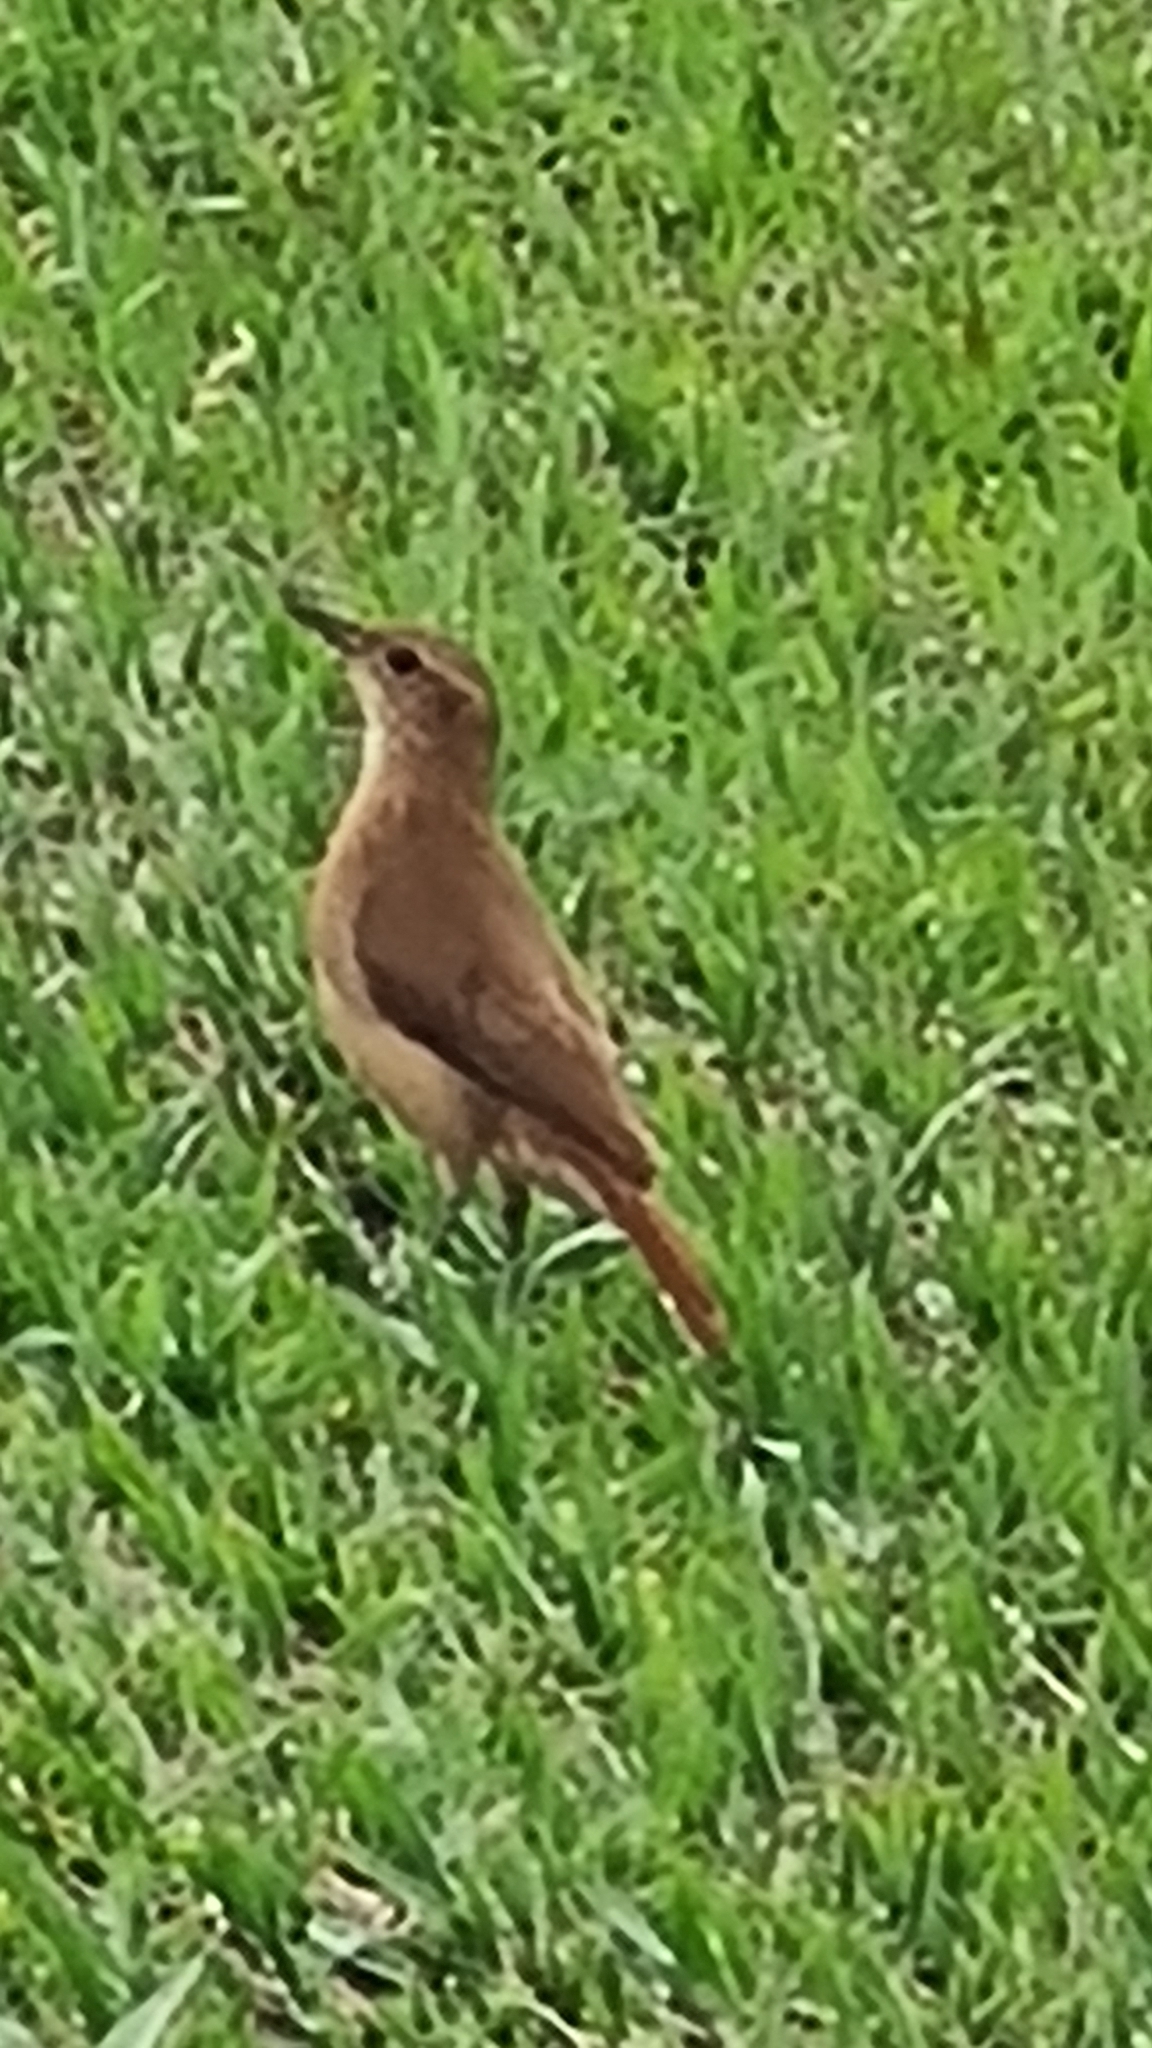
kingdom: Animalia
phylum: Chordata
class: Aves
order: Passeriformes
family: Furnariidae
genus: Furnarius
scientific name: Furnarius rufus
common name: Rufous hornero
